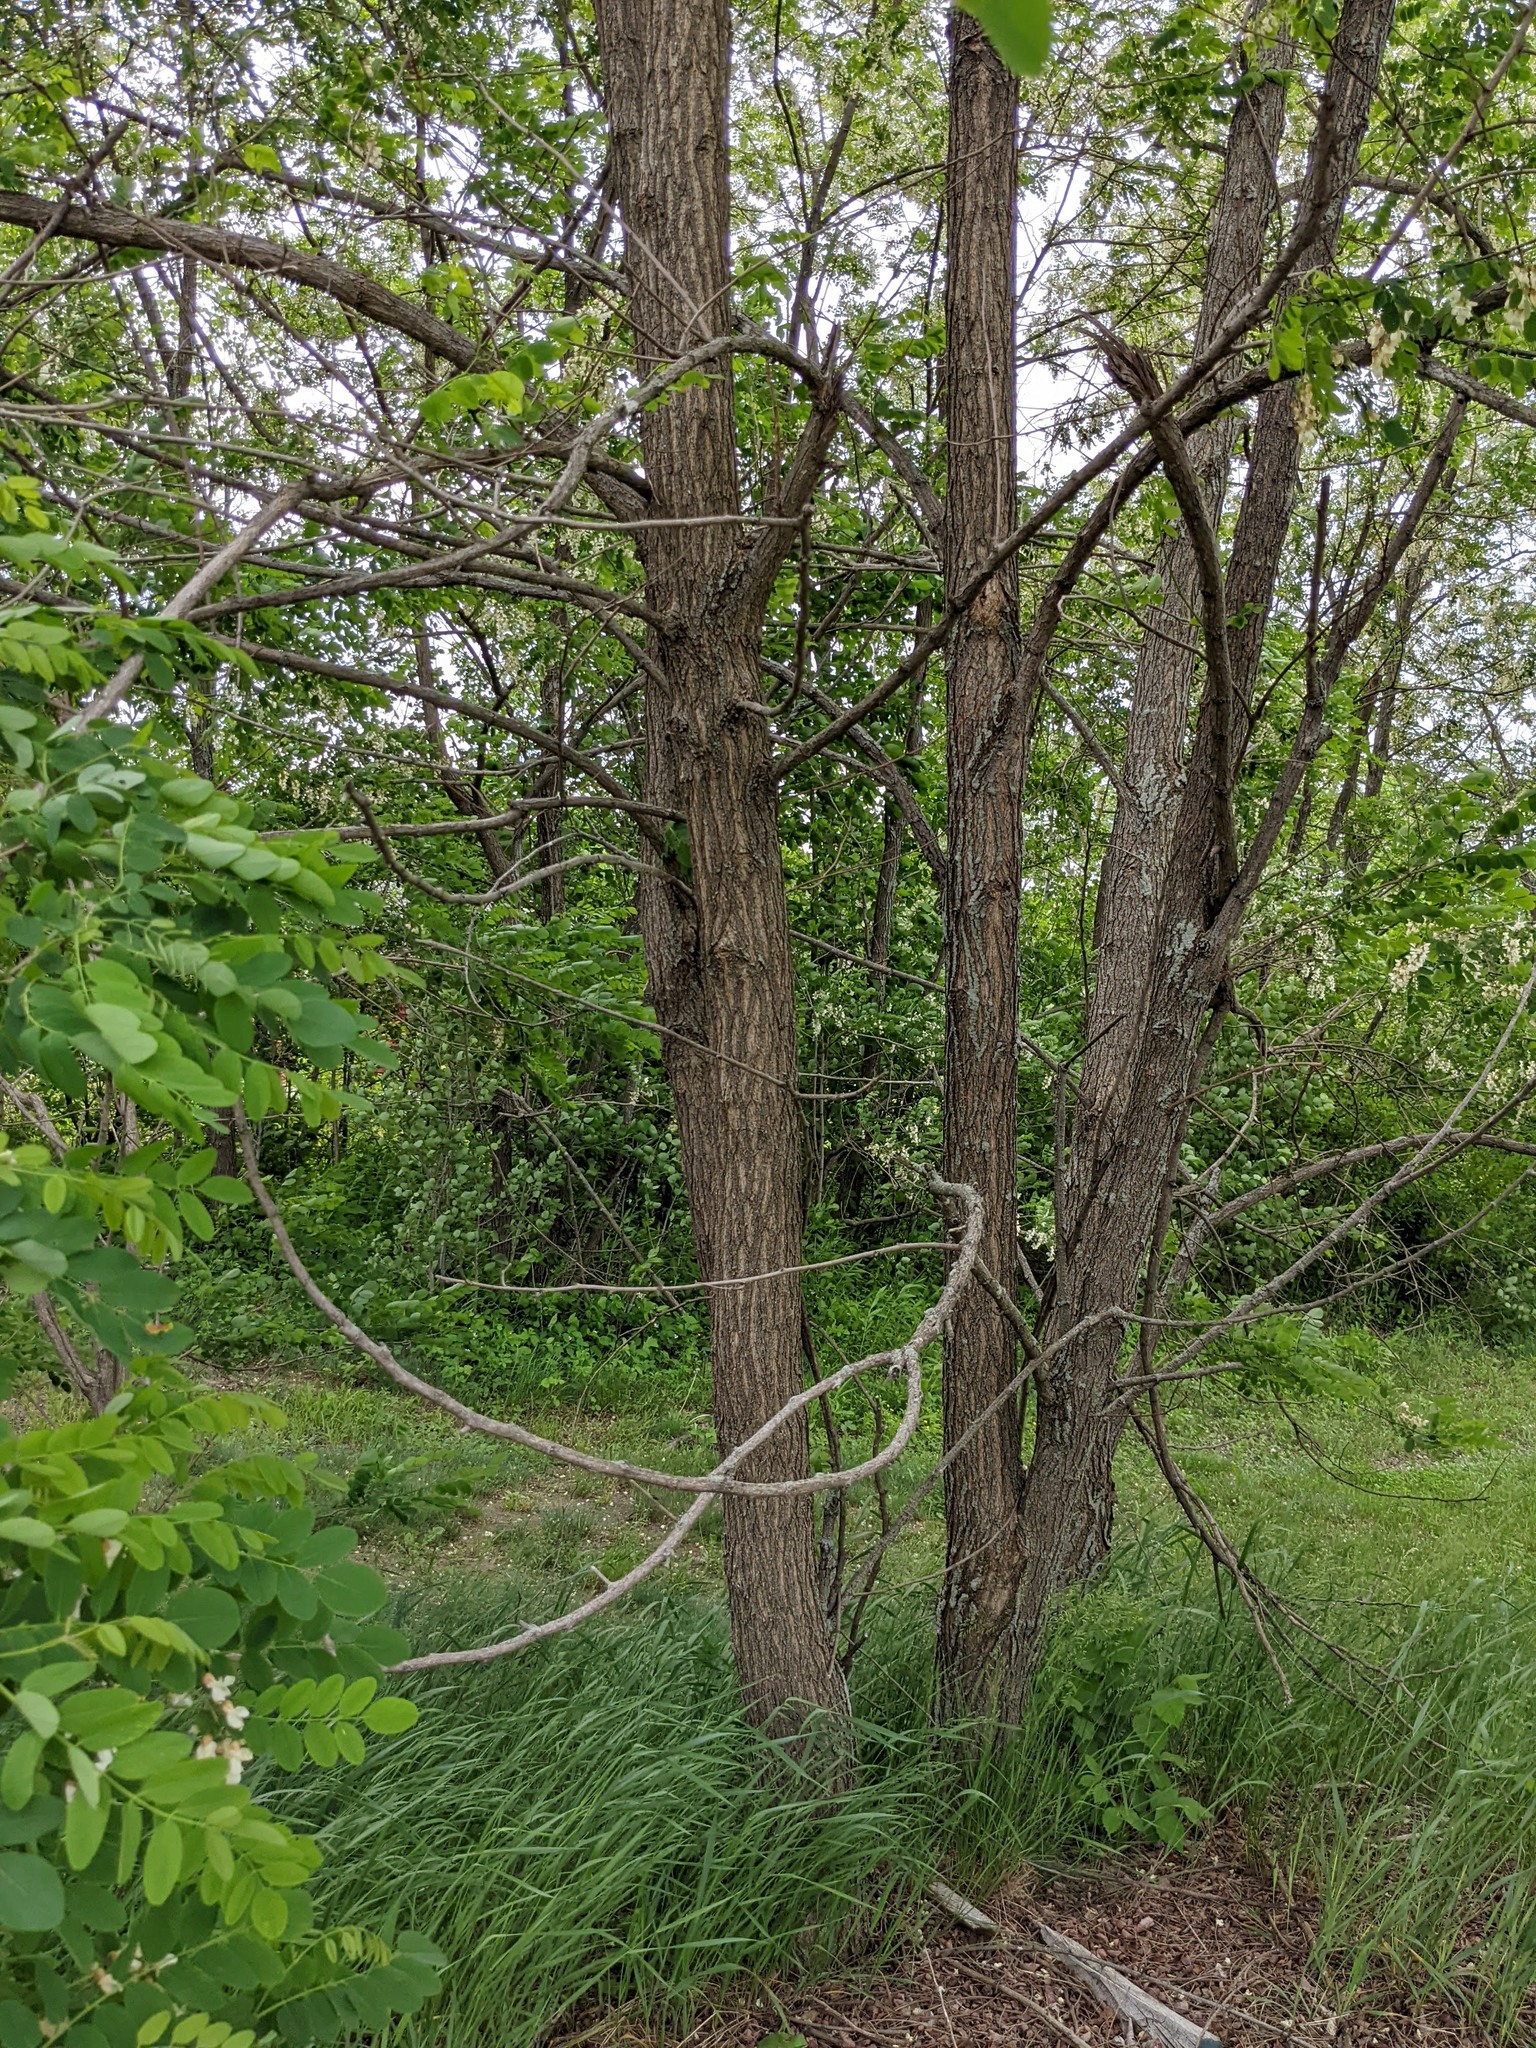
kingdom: Plantae
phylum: Tracheophyta
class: Magnoliopsida
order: Fabales
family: Fabaceae
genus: Robinia
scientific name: Robinia pseudoacacia
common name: Black locust
